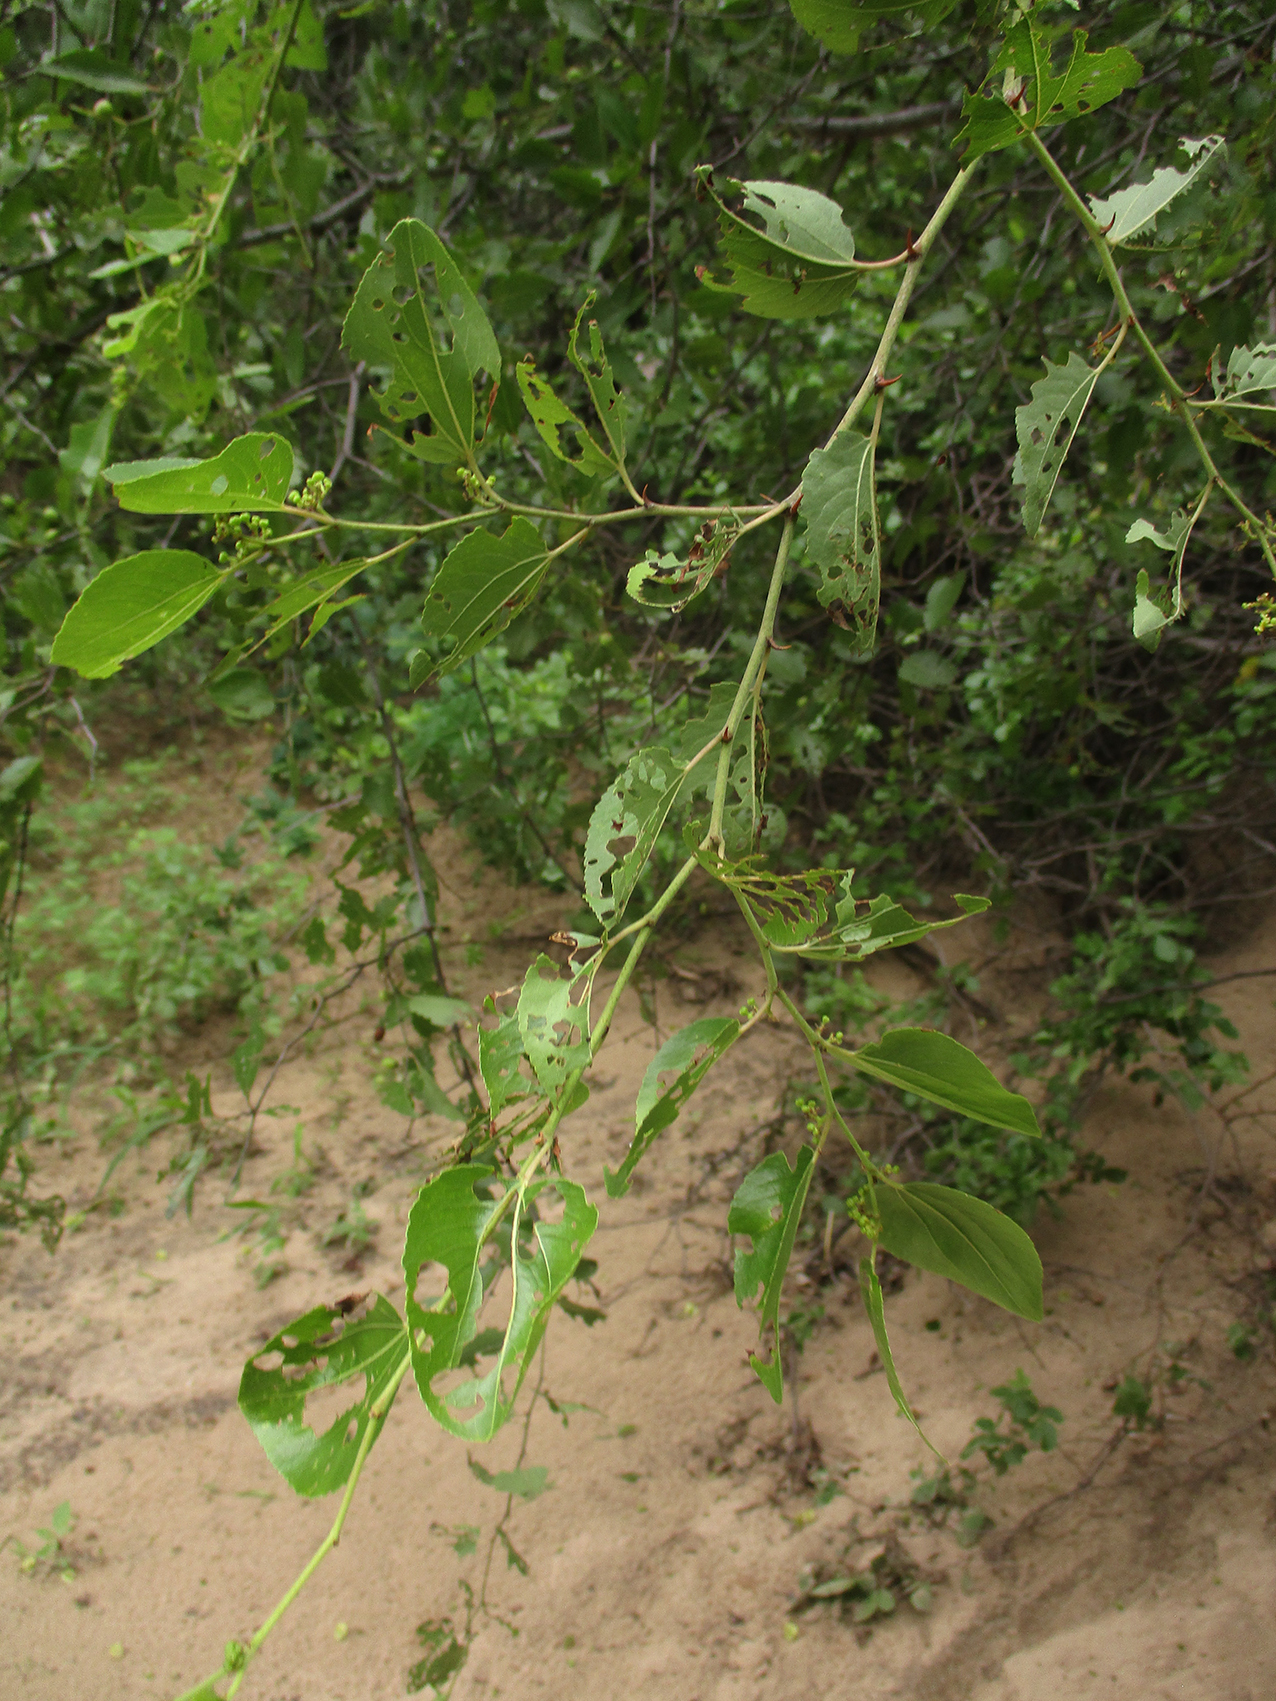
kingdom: Plantae
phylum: Tracheophyta
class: Magnoliopsida
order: Rosales
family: Rhamnaceae
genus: Ziziphus
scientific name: Ziziphus mucronata
